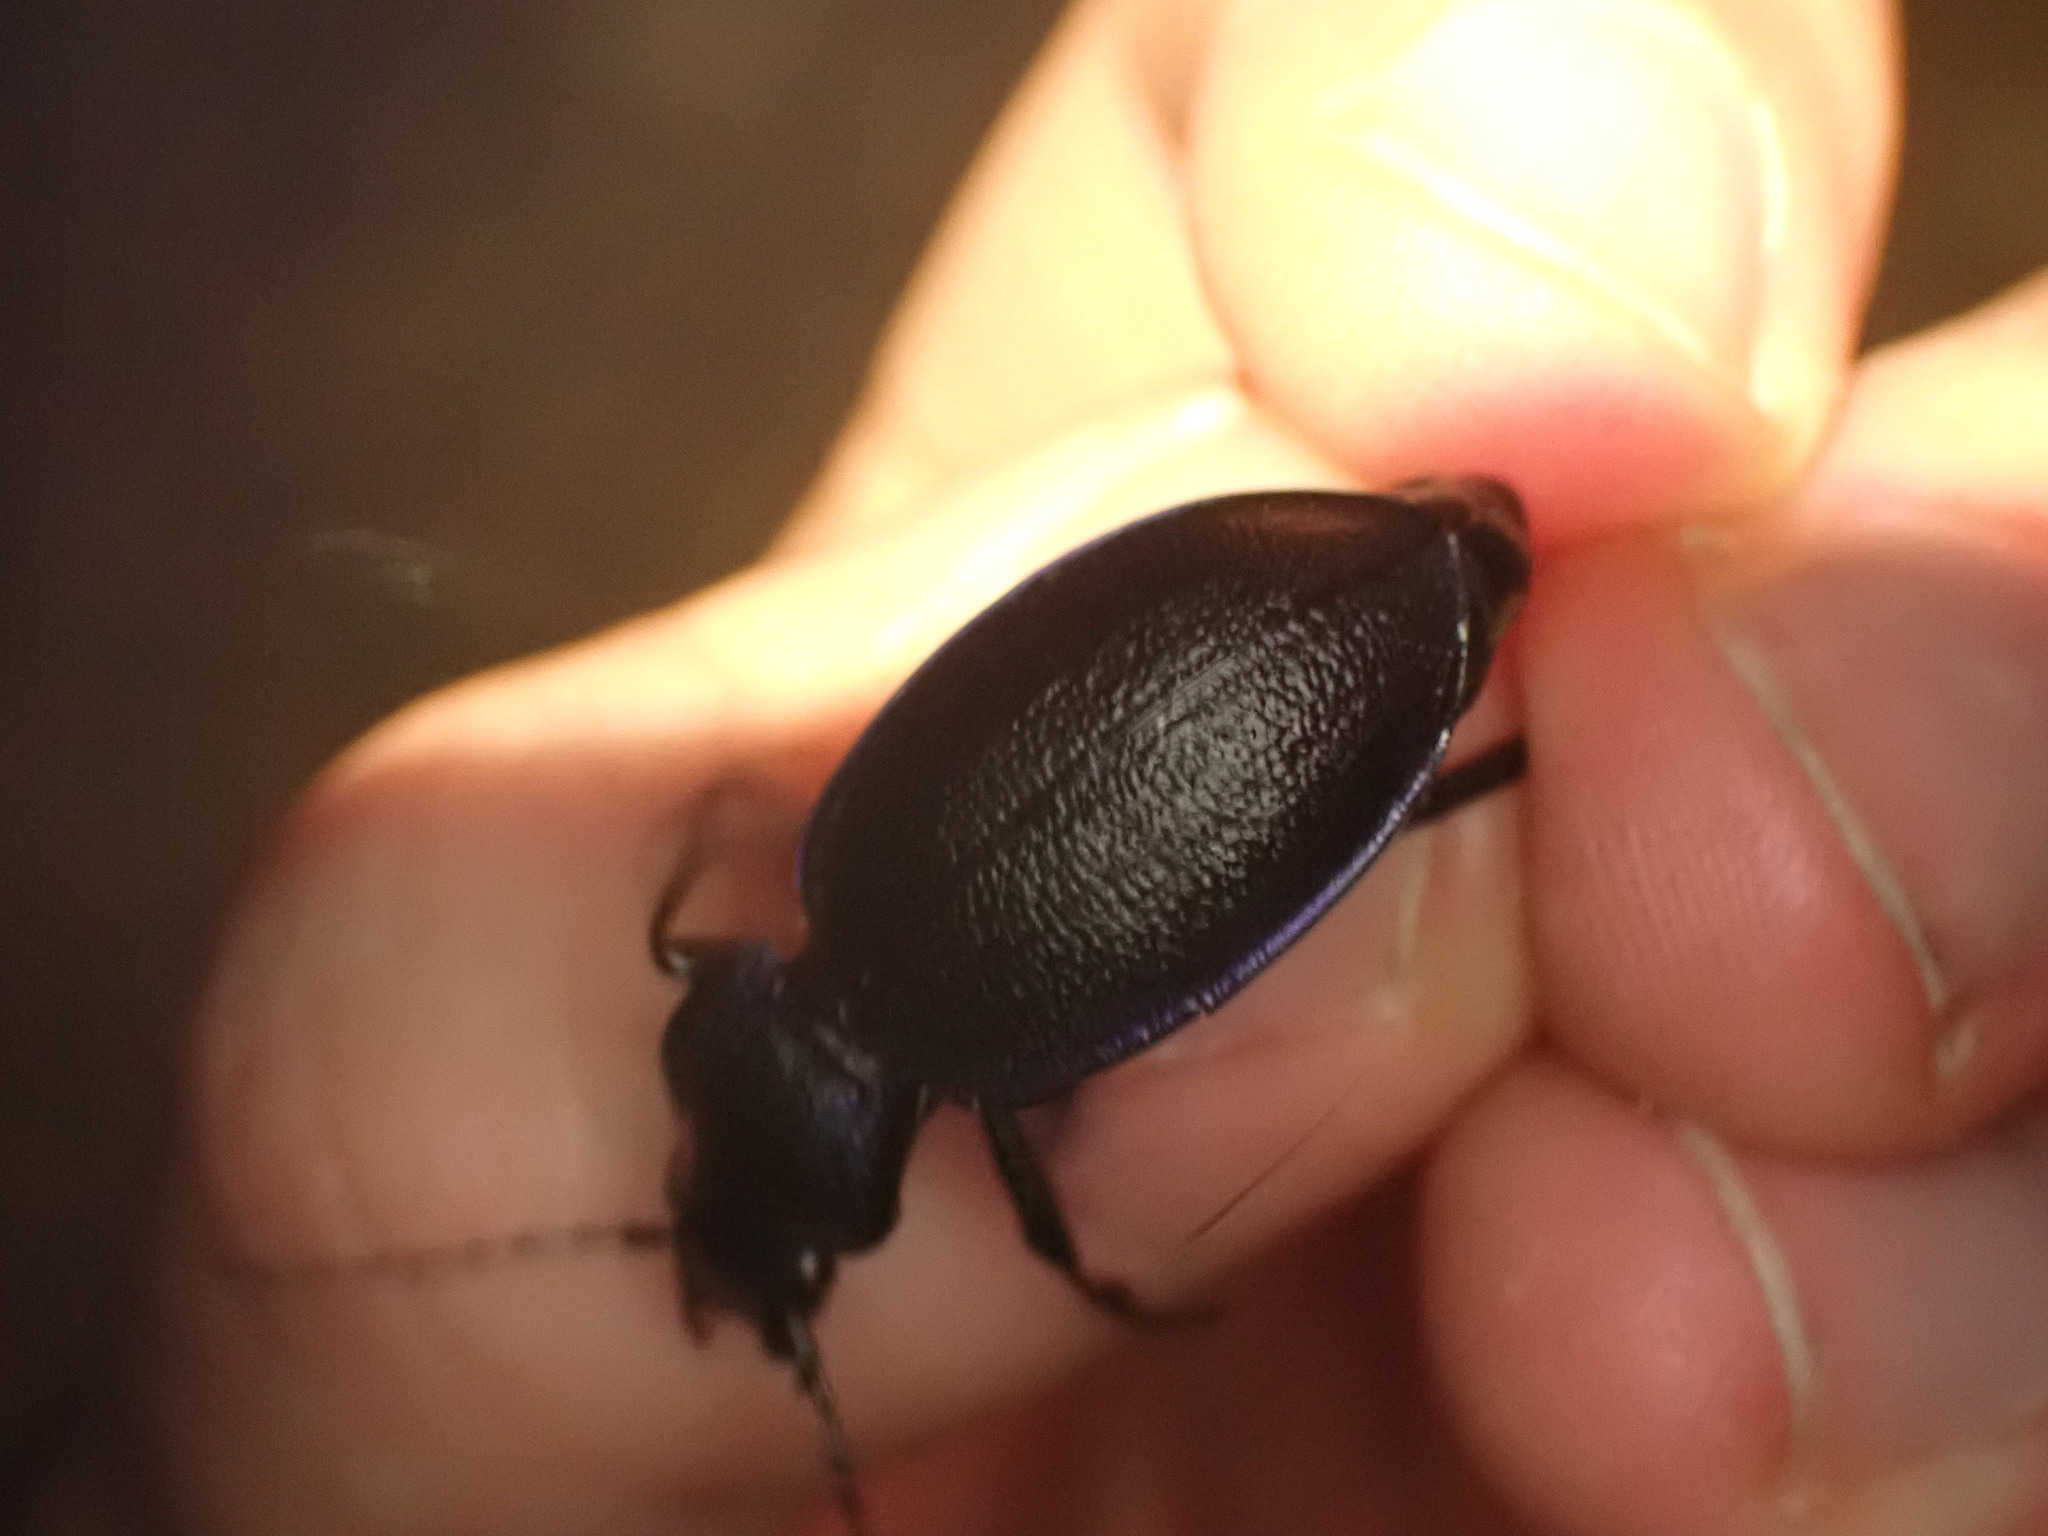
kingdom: Animalia
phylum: Arthropoda
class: Insecta
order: Coleoptera
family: Carabidae
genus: Carabus
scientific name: Carabus problematicus
